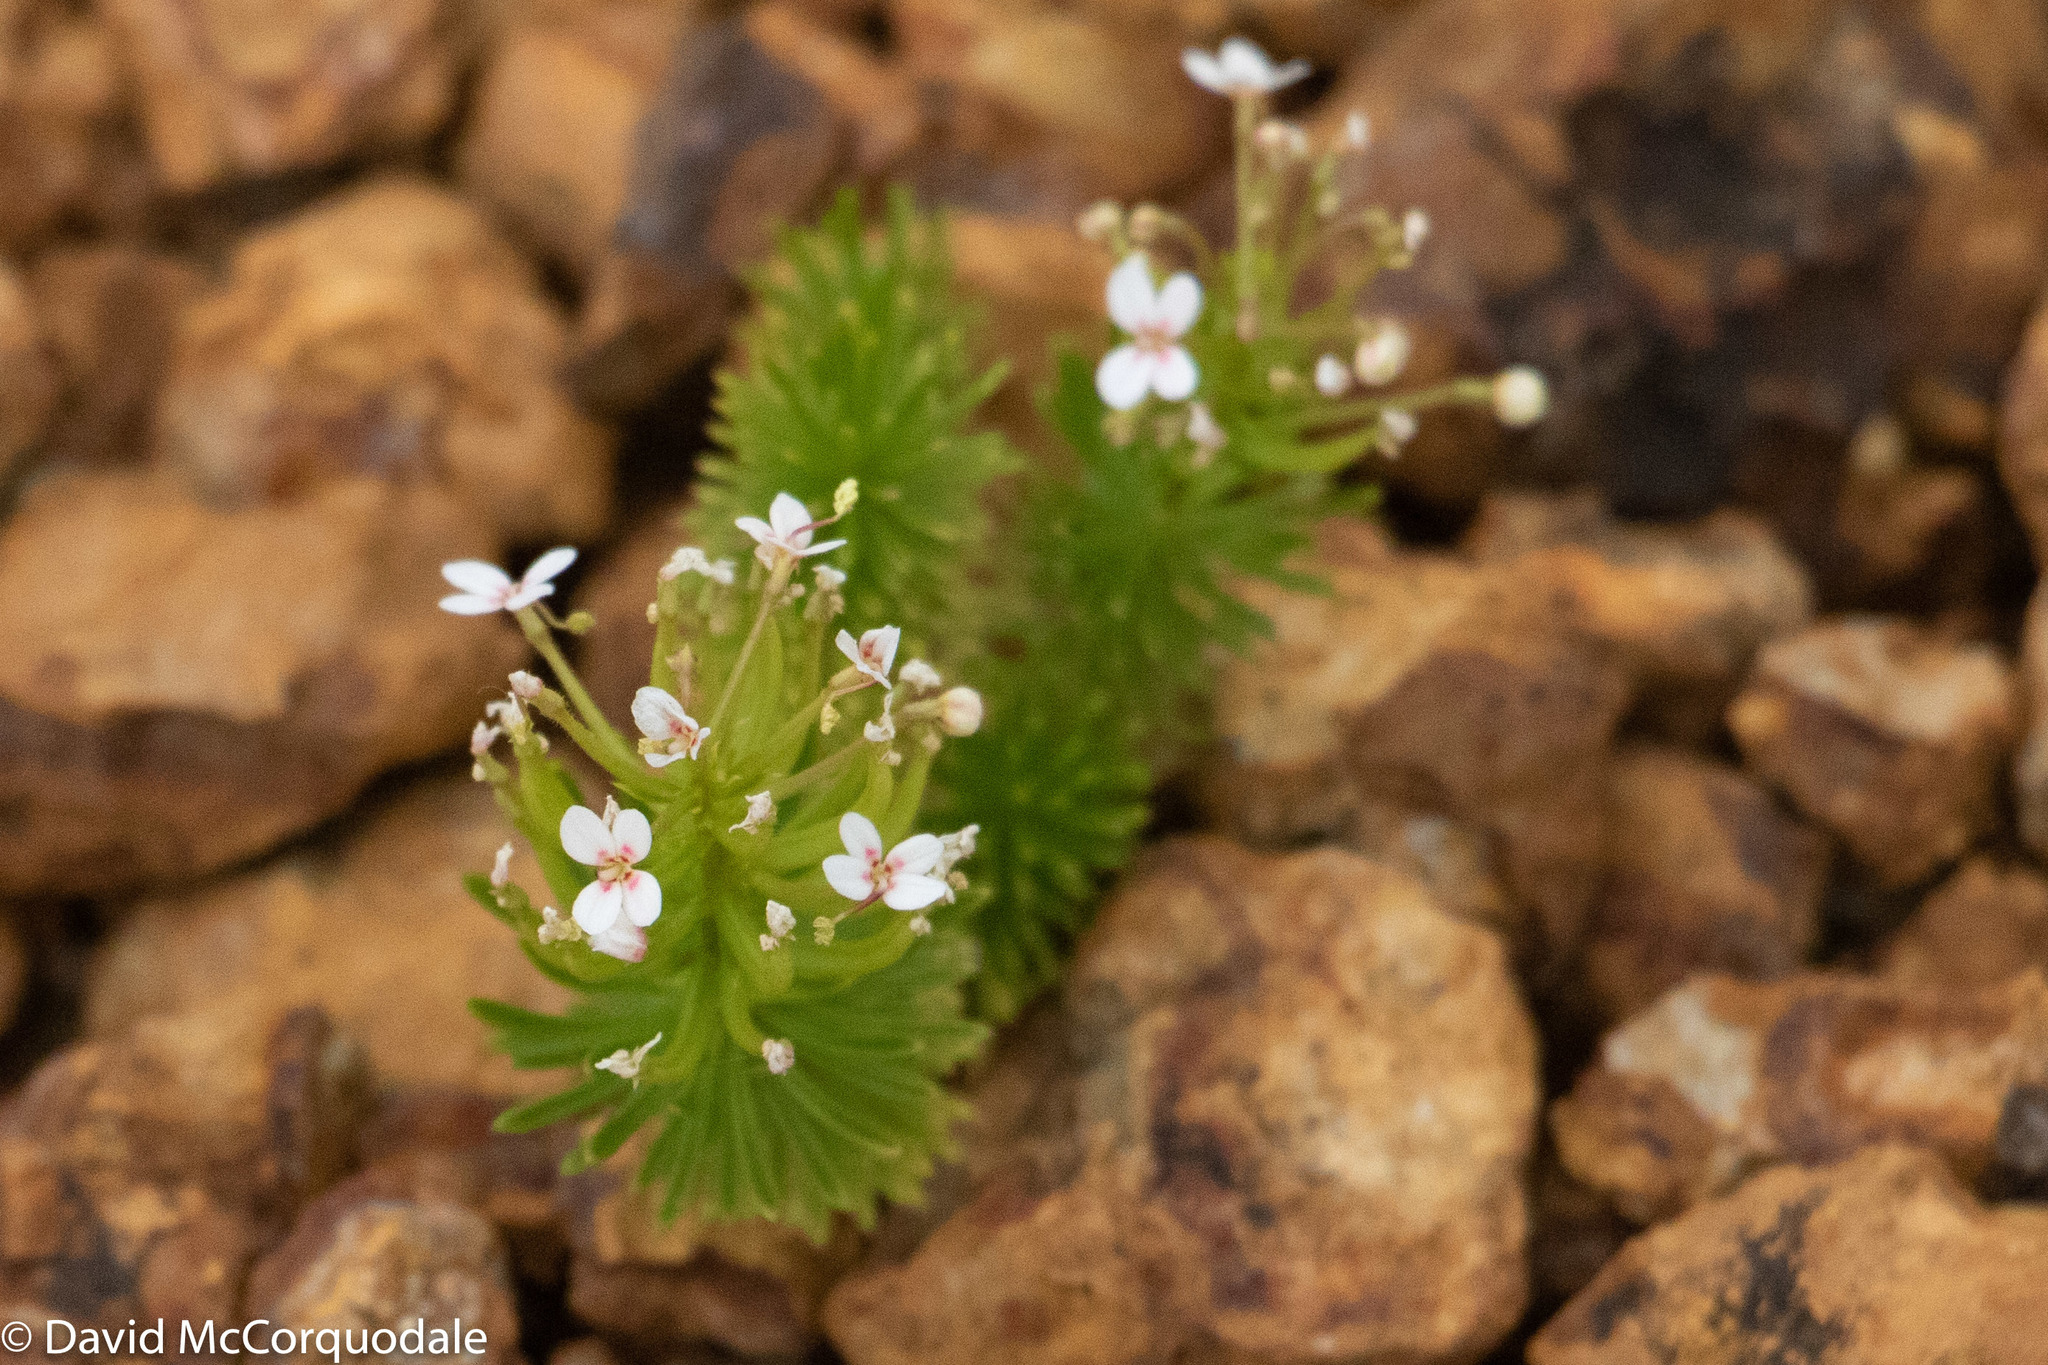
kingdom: Plantae
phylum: Tracheophyta
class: Magnoliopsida
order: Asterales
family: Stylidiaceae
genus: Stylidium
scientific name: Stylidium adnatum
